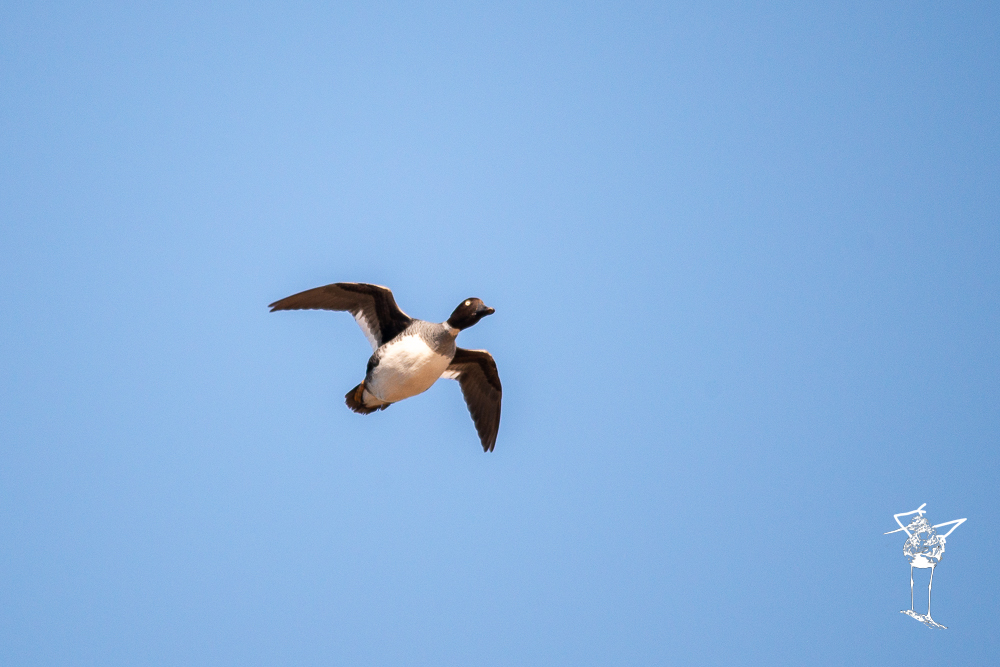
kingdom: Animalia
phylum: Chordata
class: Aves
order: Anseriformes
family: Anatidae
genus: Bucephala
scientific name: Bucephala clangula
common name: Common goldeneye
